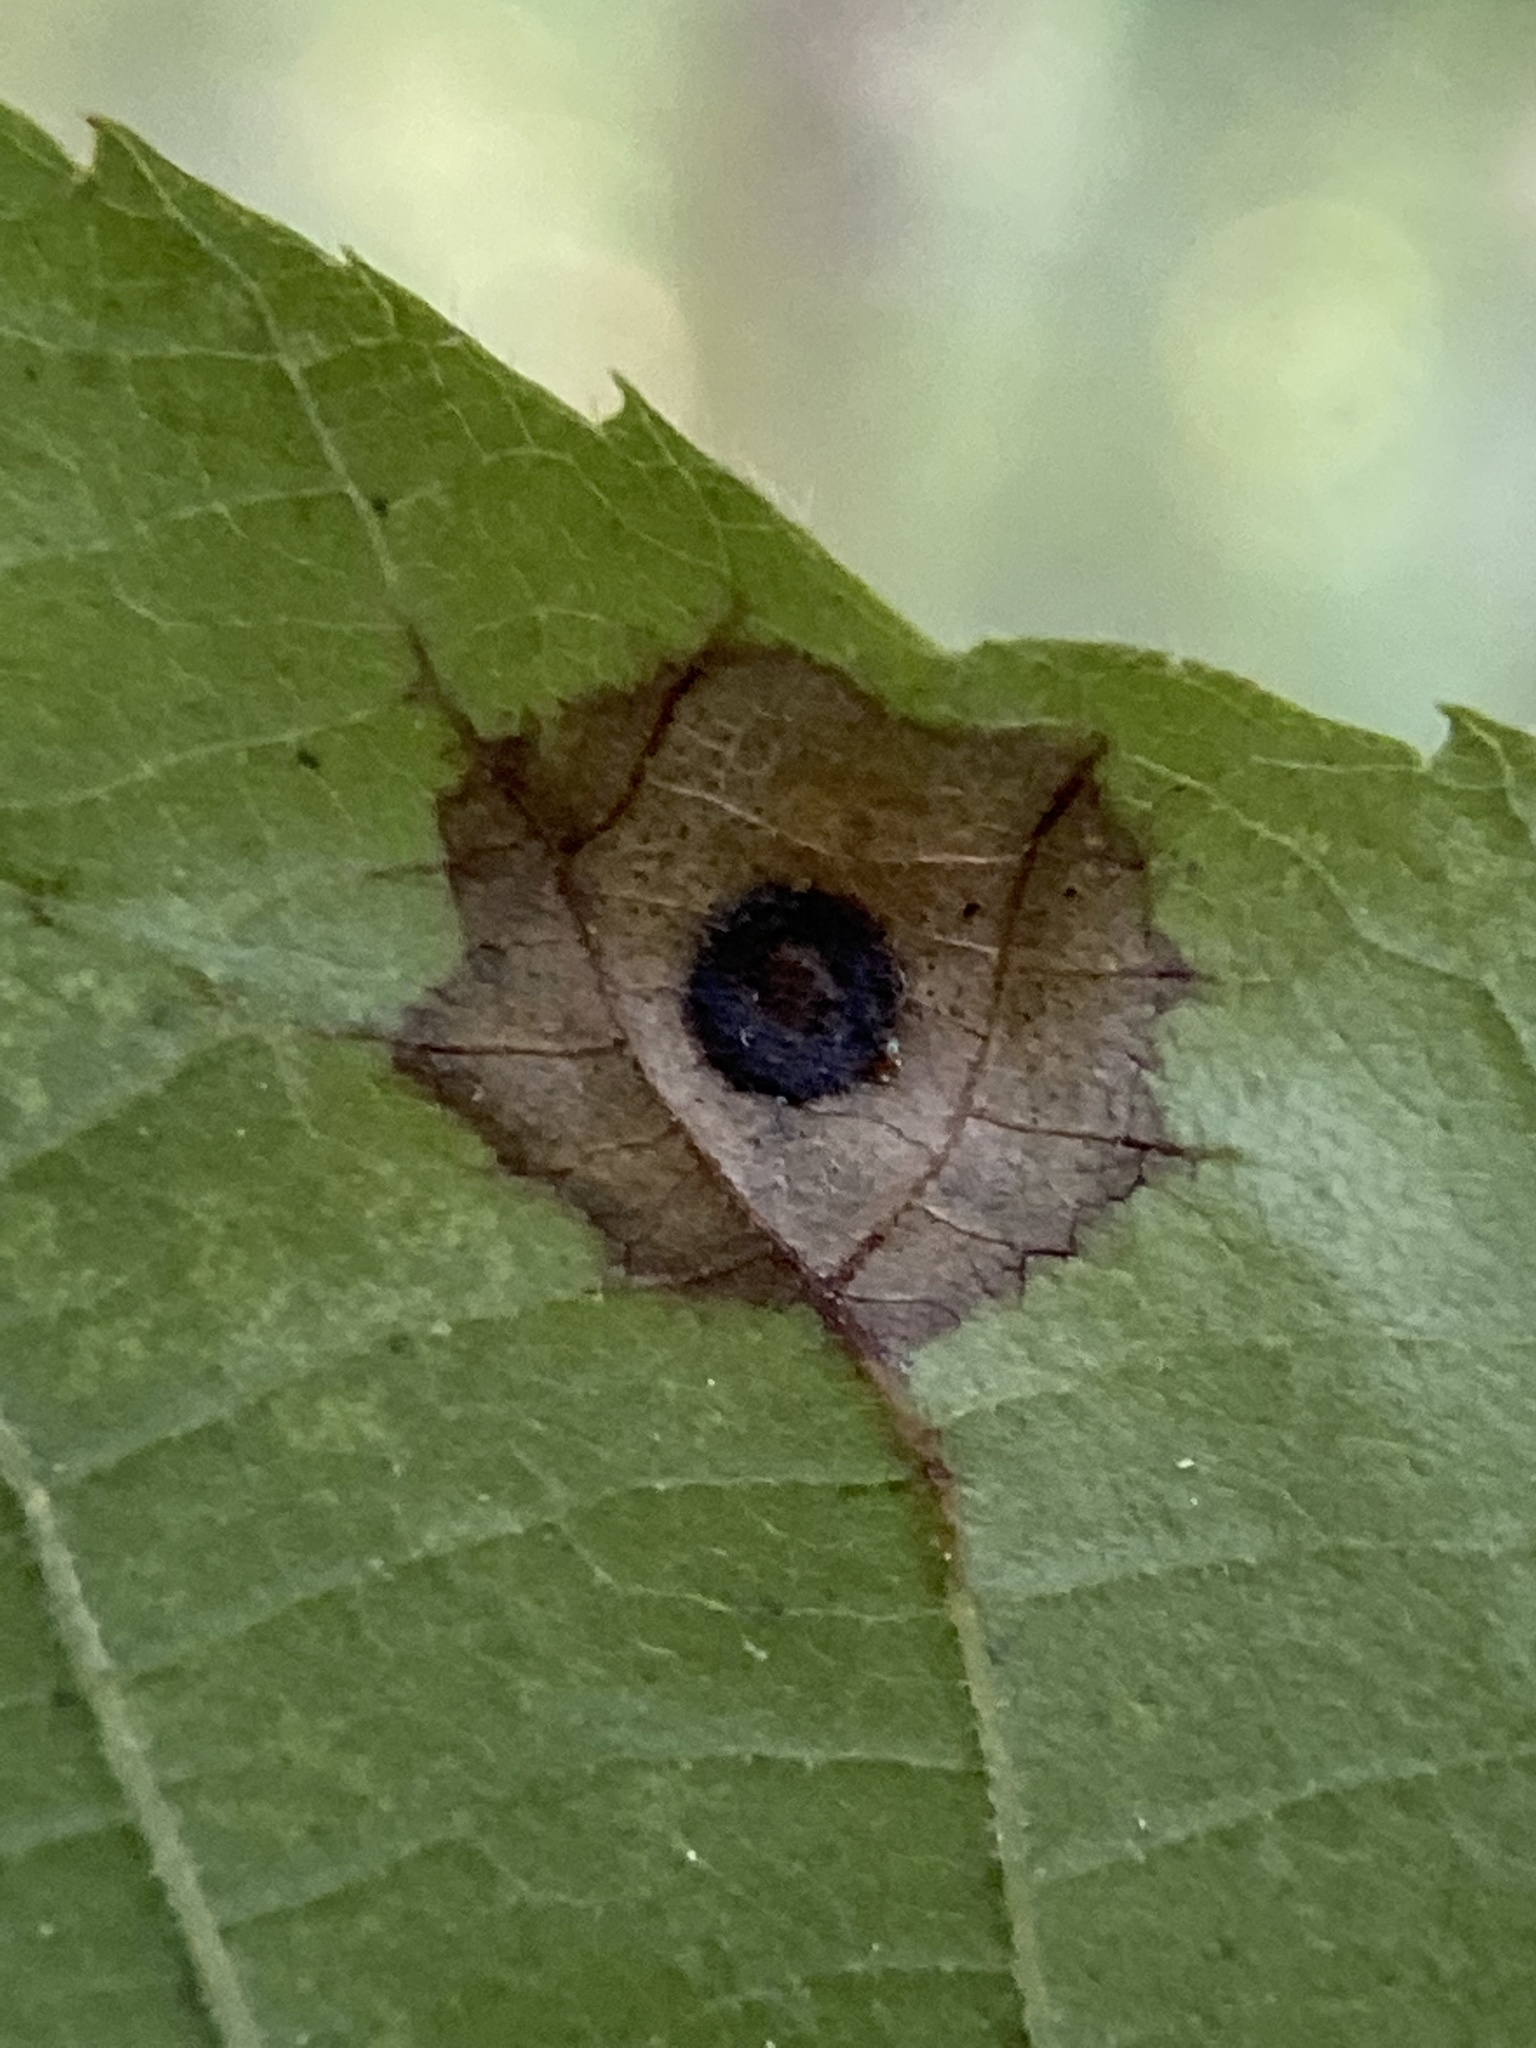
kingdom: Animalia
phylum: Arthropoda
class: Insecta
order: Diptera
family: Cecidomyiidae
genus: Gliaspilota
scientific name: Gliaspilota glutinosa
